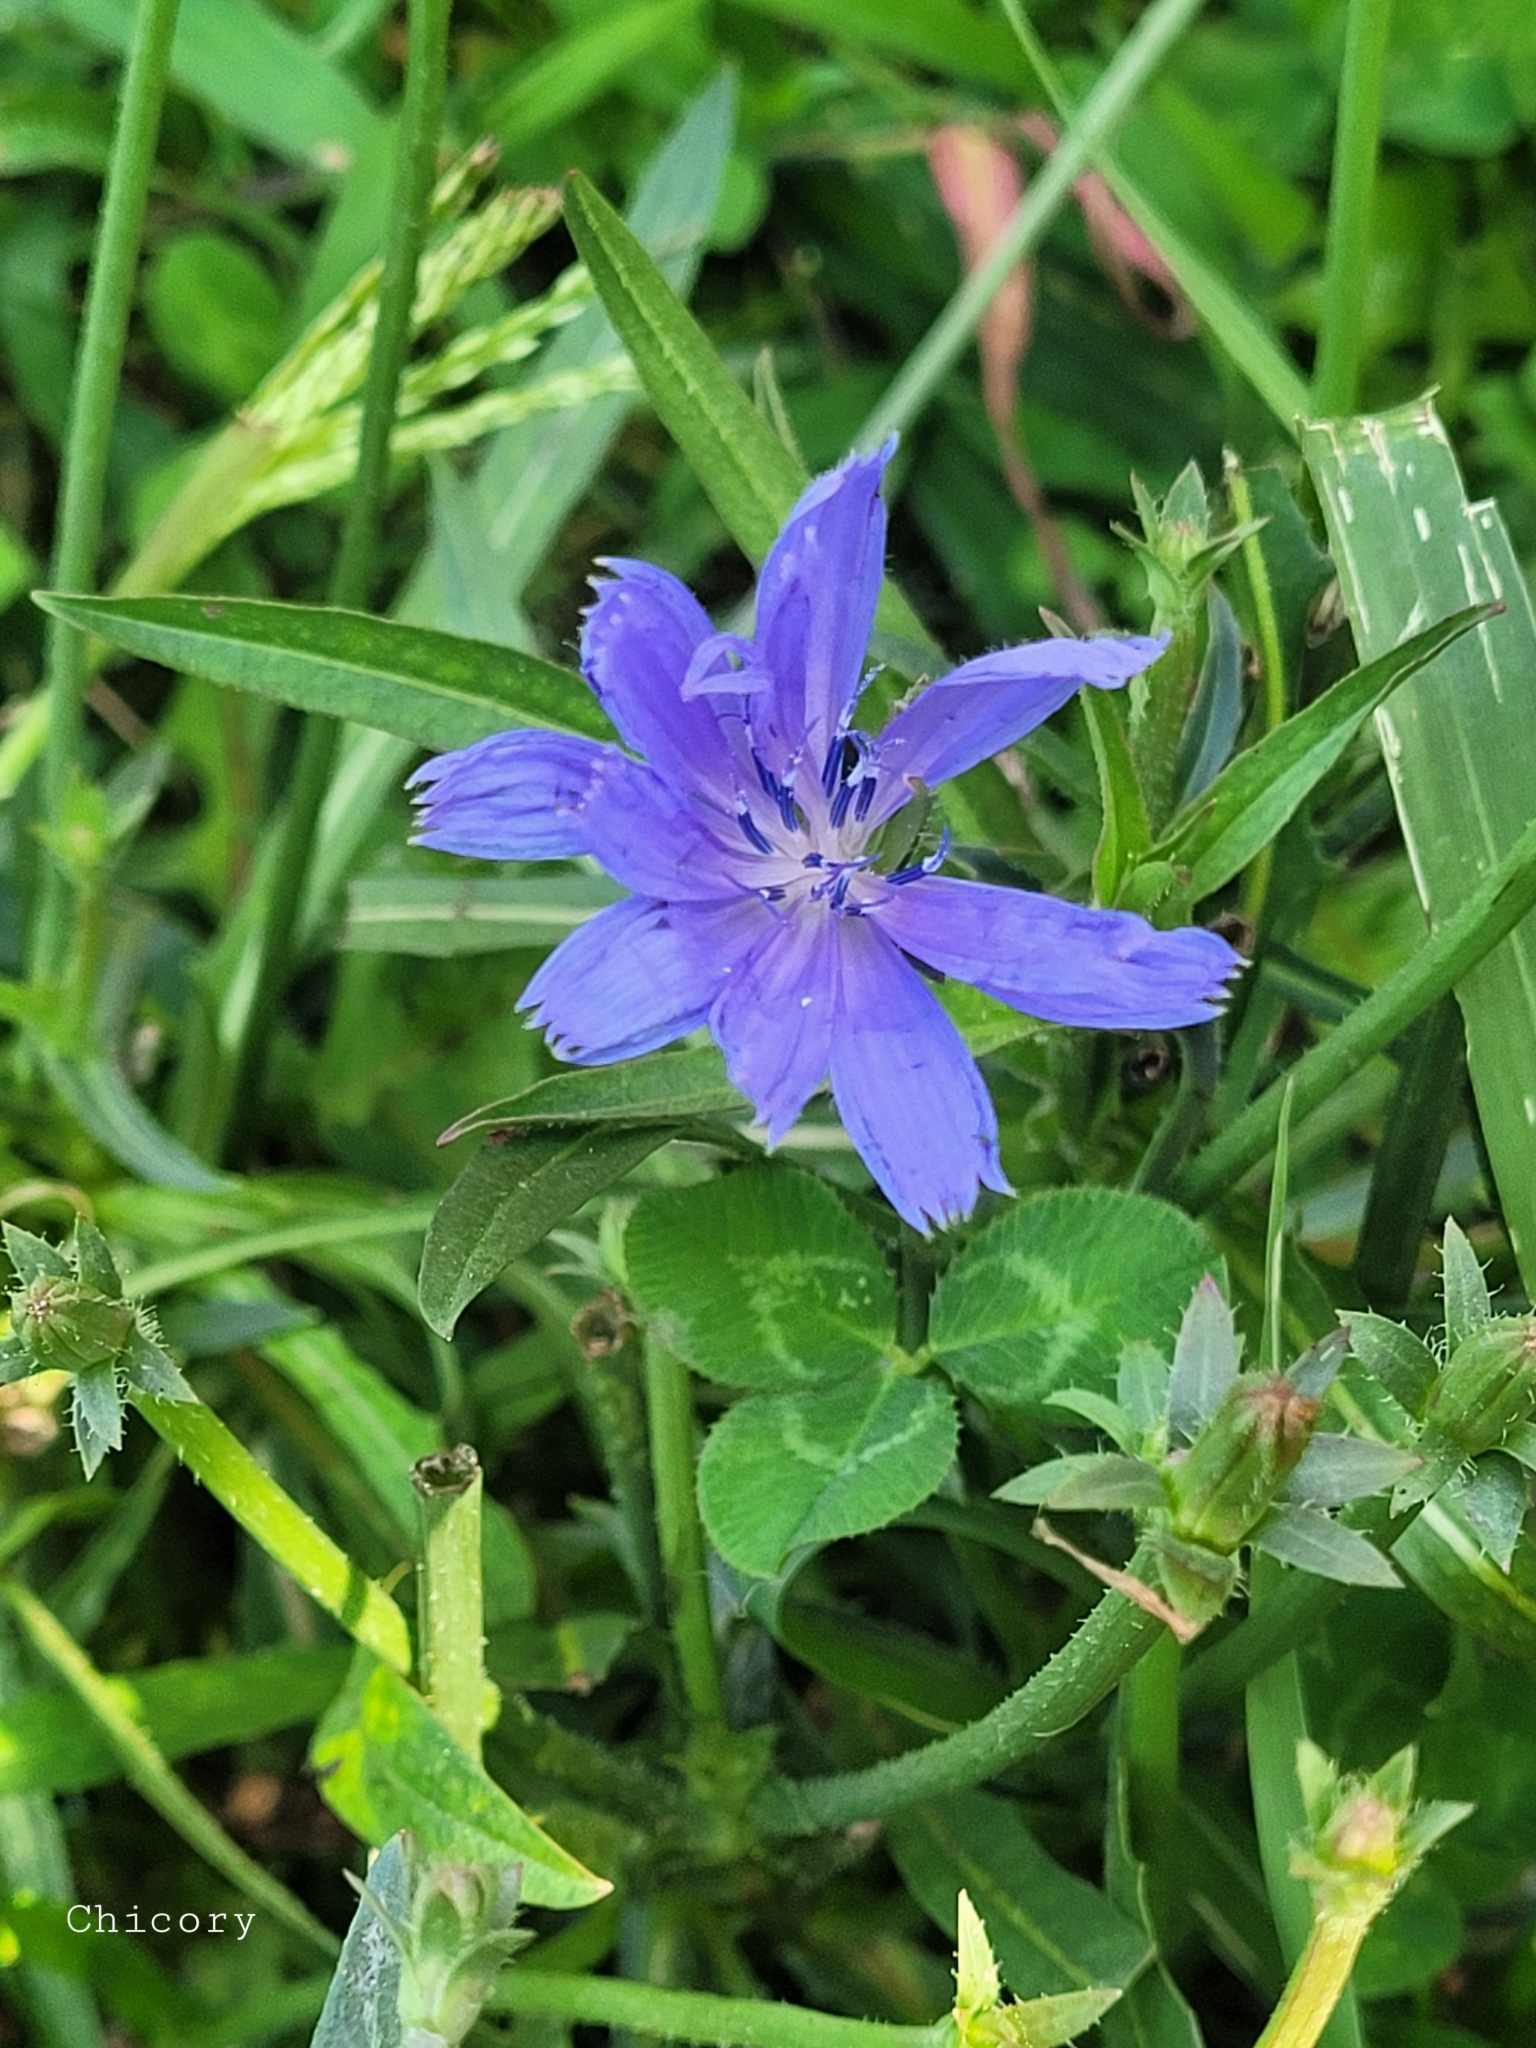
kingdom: Plantae
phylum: Tracheophyta
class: Magnoliopsida
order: Asterales
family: Asteraceae
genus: Cichorium
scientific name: Cichorium intybus
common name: Chicory
